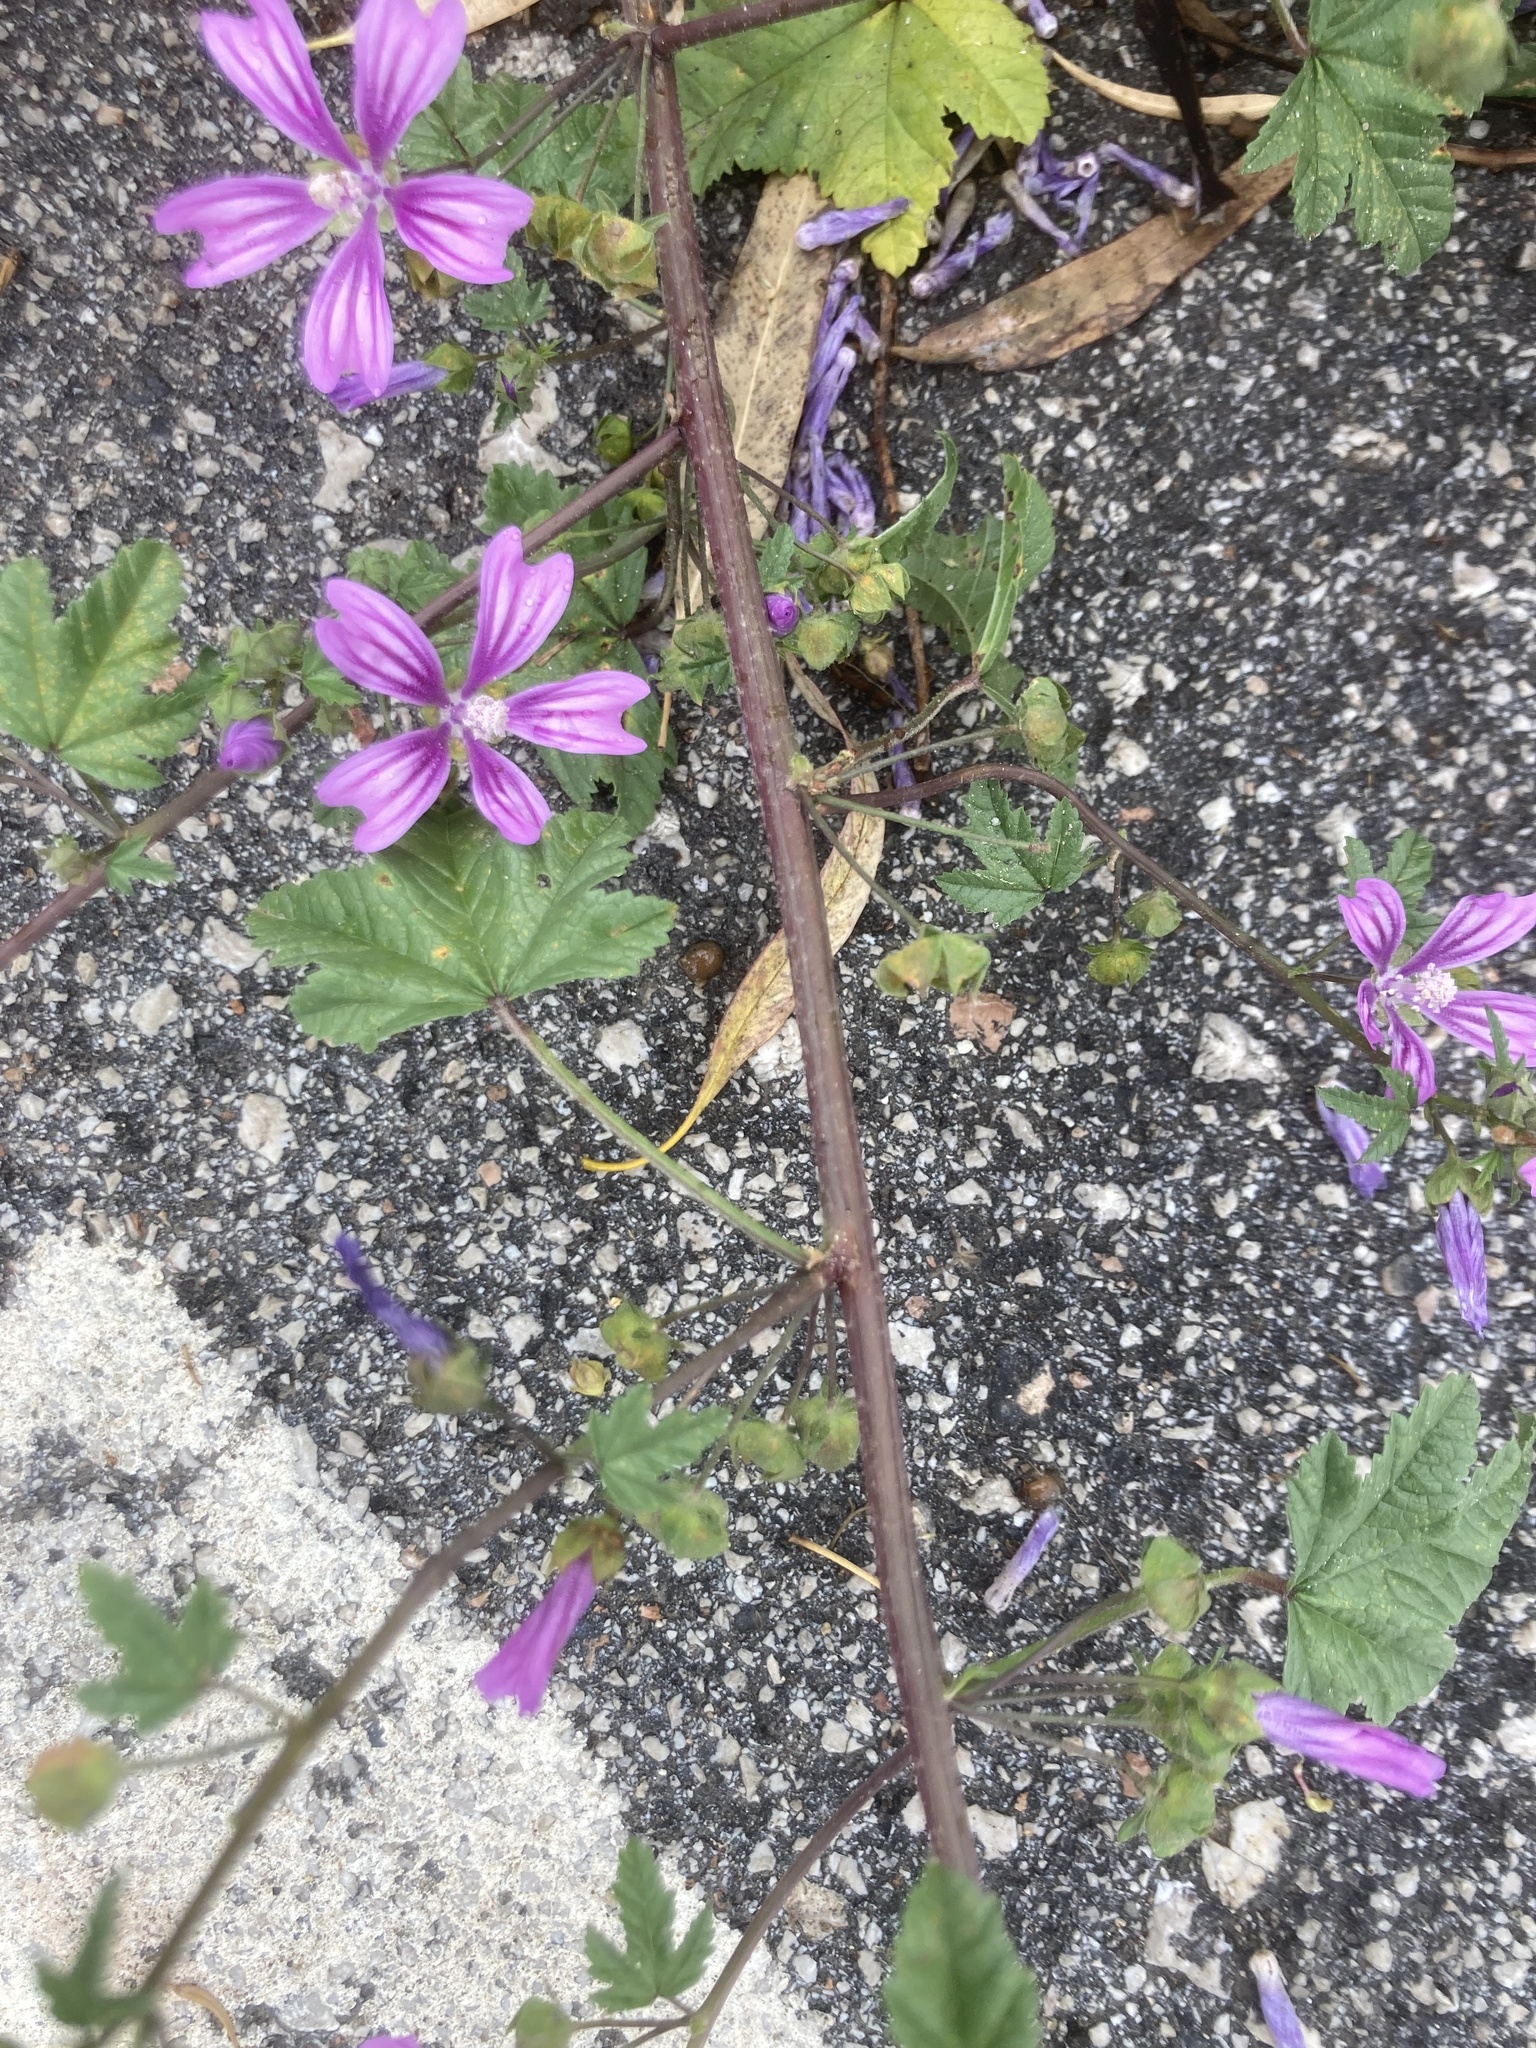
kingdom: Plantae
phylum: Tracheophyta
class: Magnoliopsida
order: Malvales
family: Malvaceae
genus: Malva
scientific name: Malva sylvestris
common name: Common mallow
